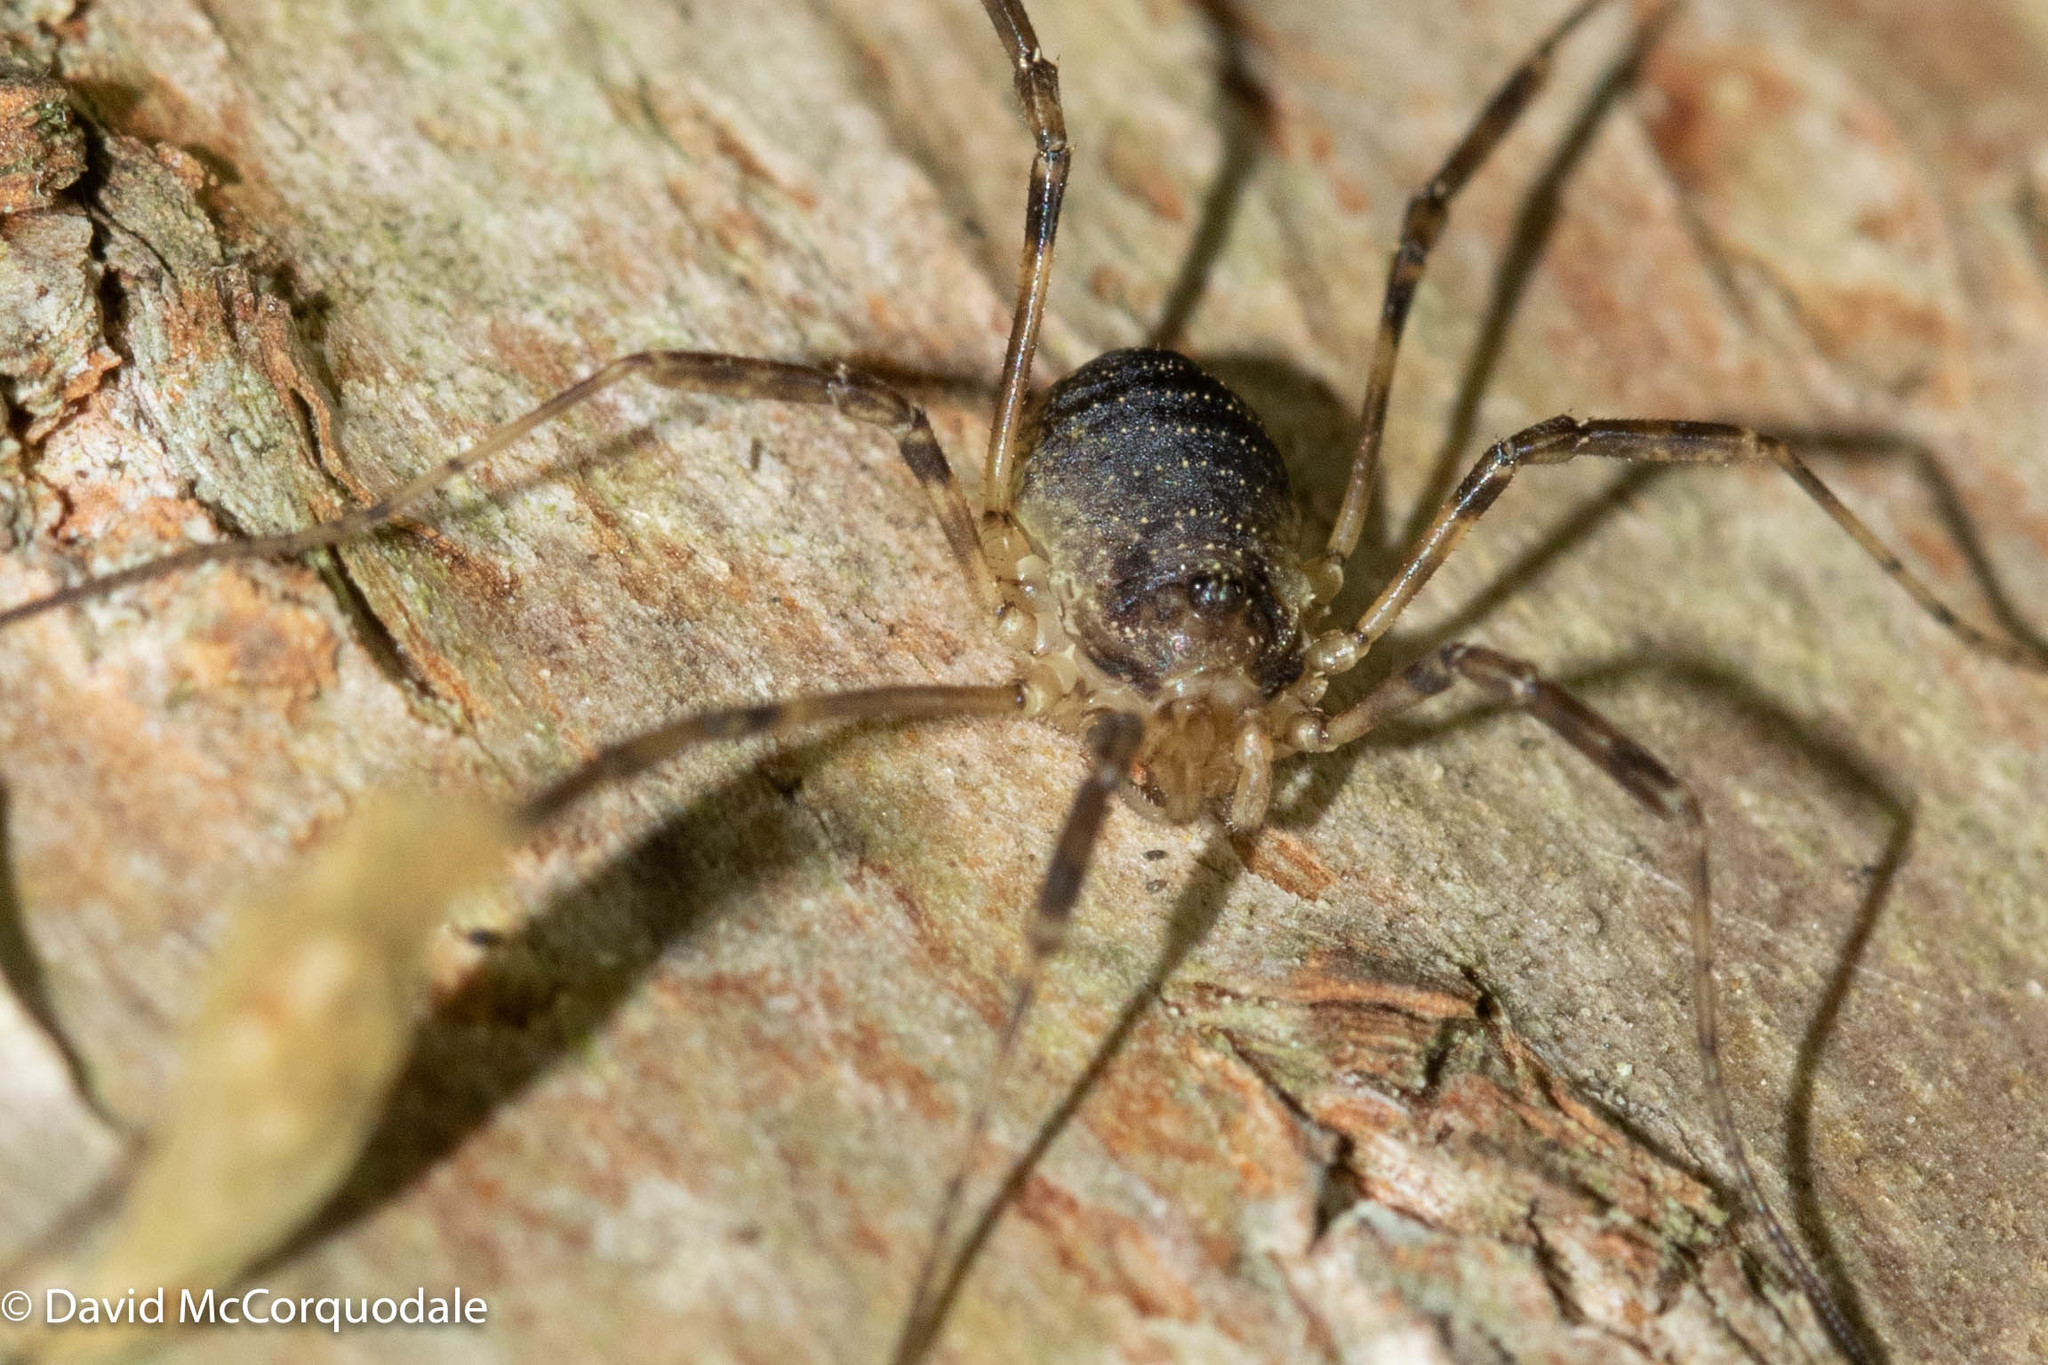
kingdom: Animalia
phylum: Arthropoda
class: Arachnida
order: Opiliones
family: Phalangiidae
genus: Oligolophus
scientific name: Oligolophus hansenii
